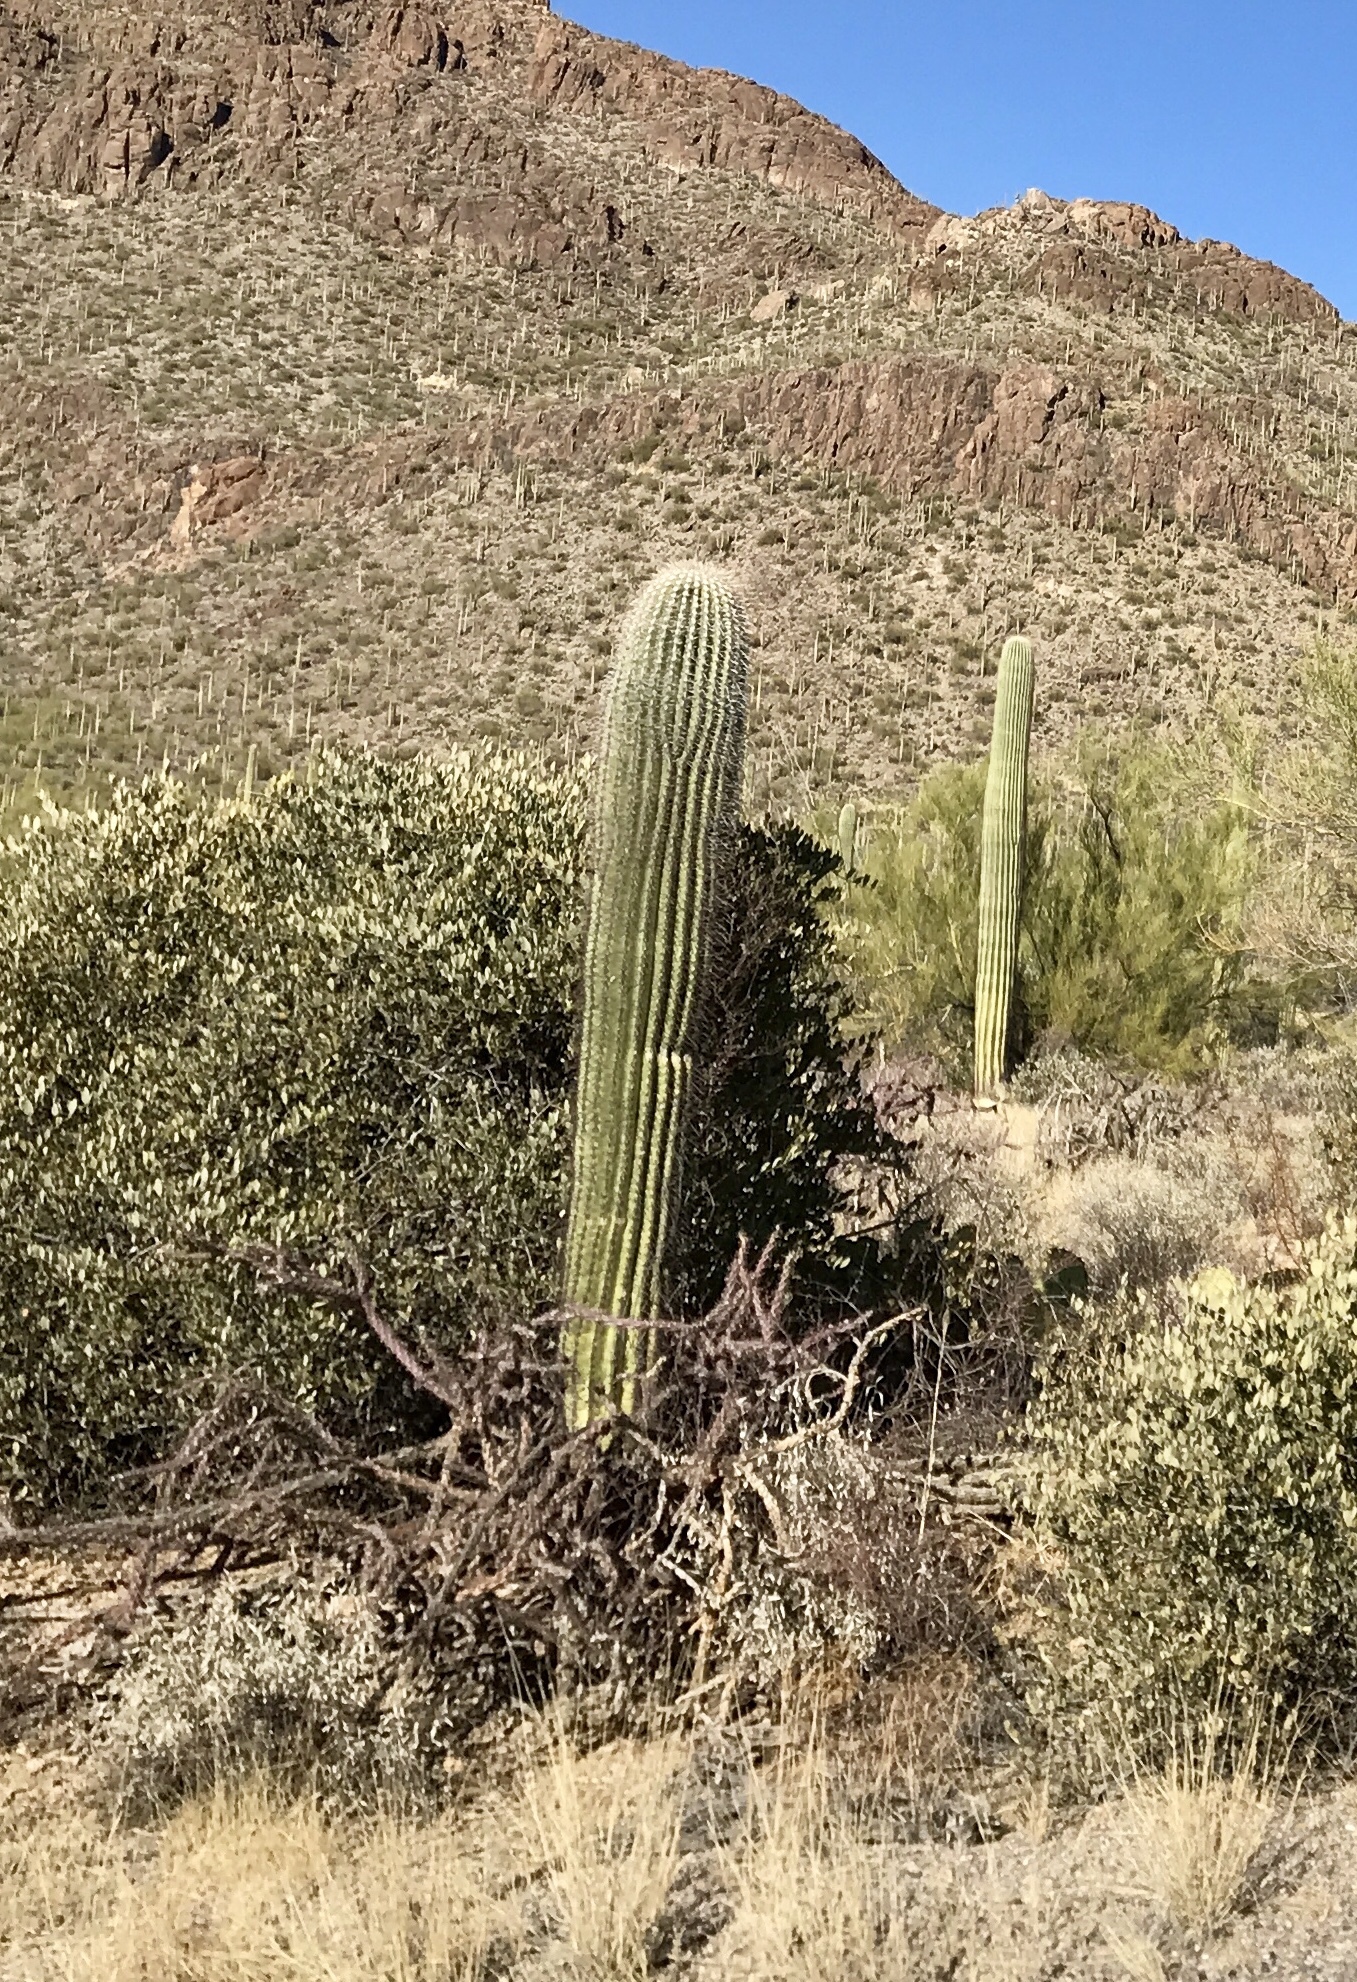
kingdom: Plantae
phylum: Tracheophyta
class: Magnoliopsida
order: Caryophyllales
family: Cactaceae
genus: Carnegiea
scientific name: Carnegiea gigantea
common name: Saguaro
